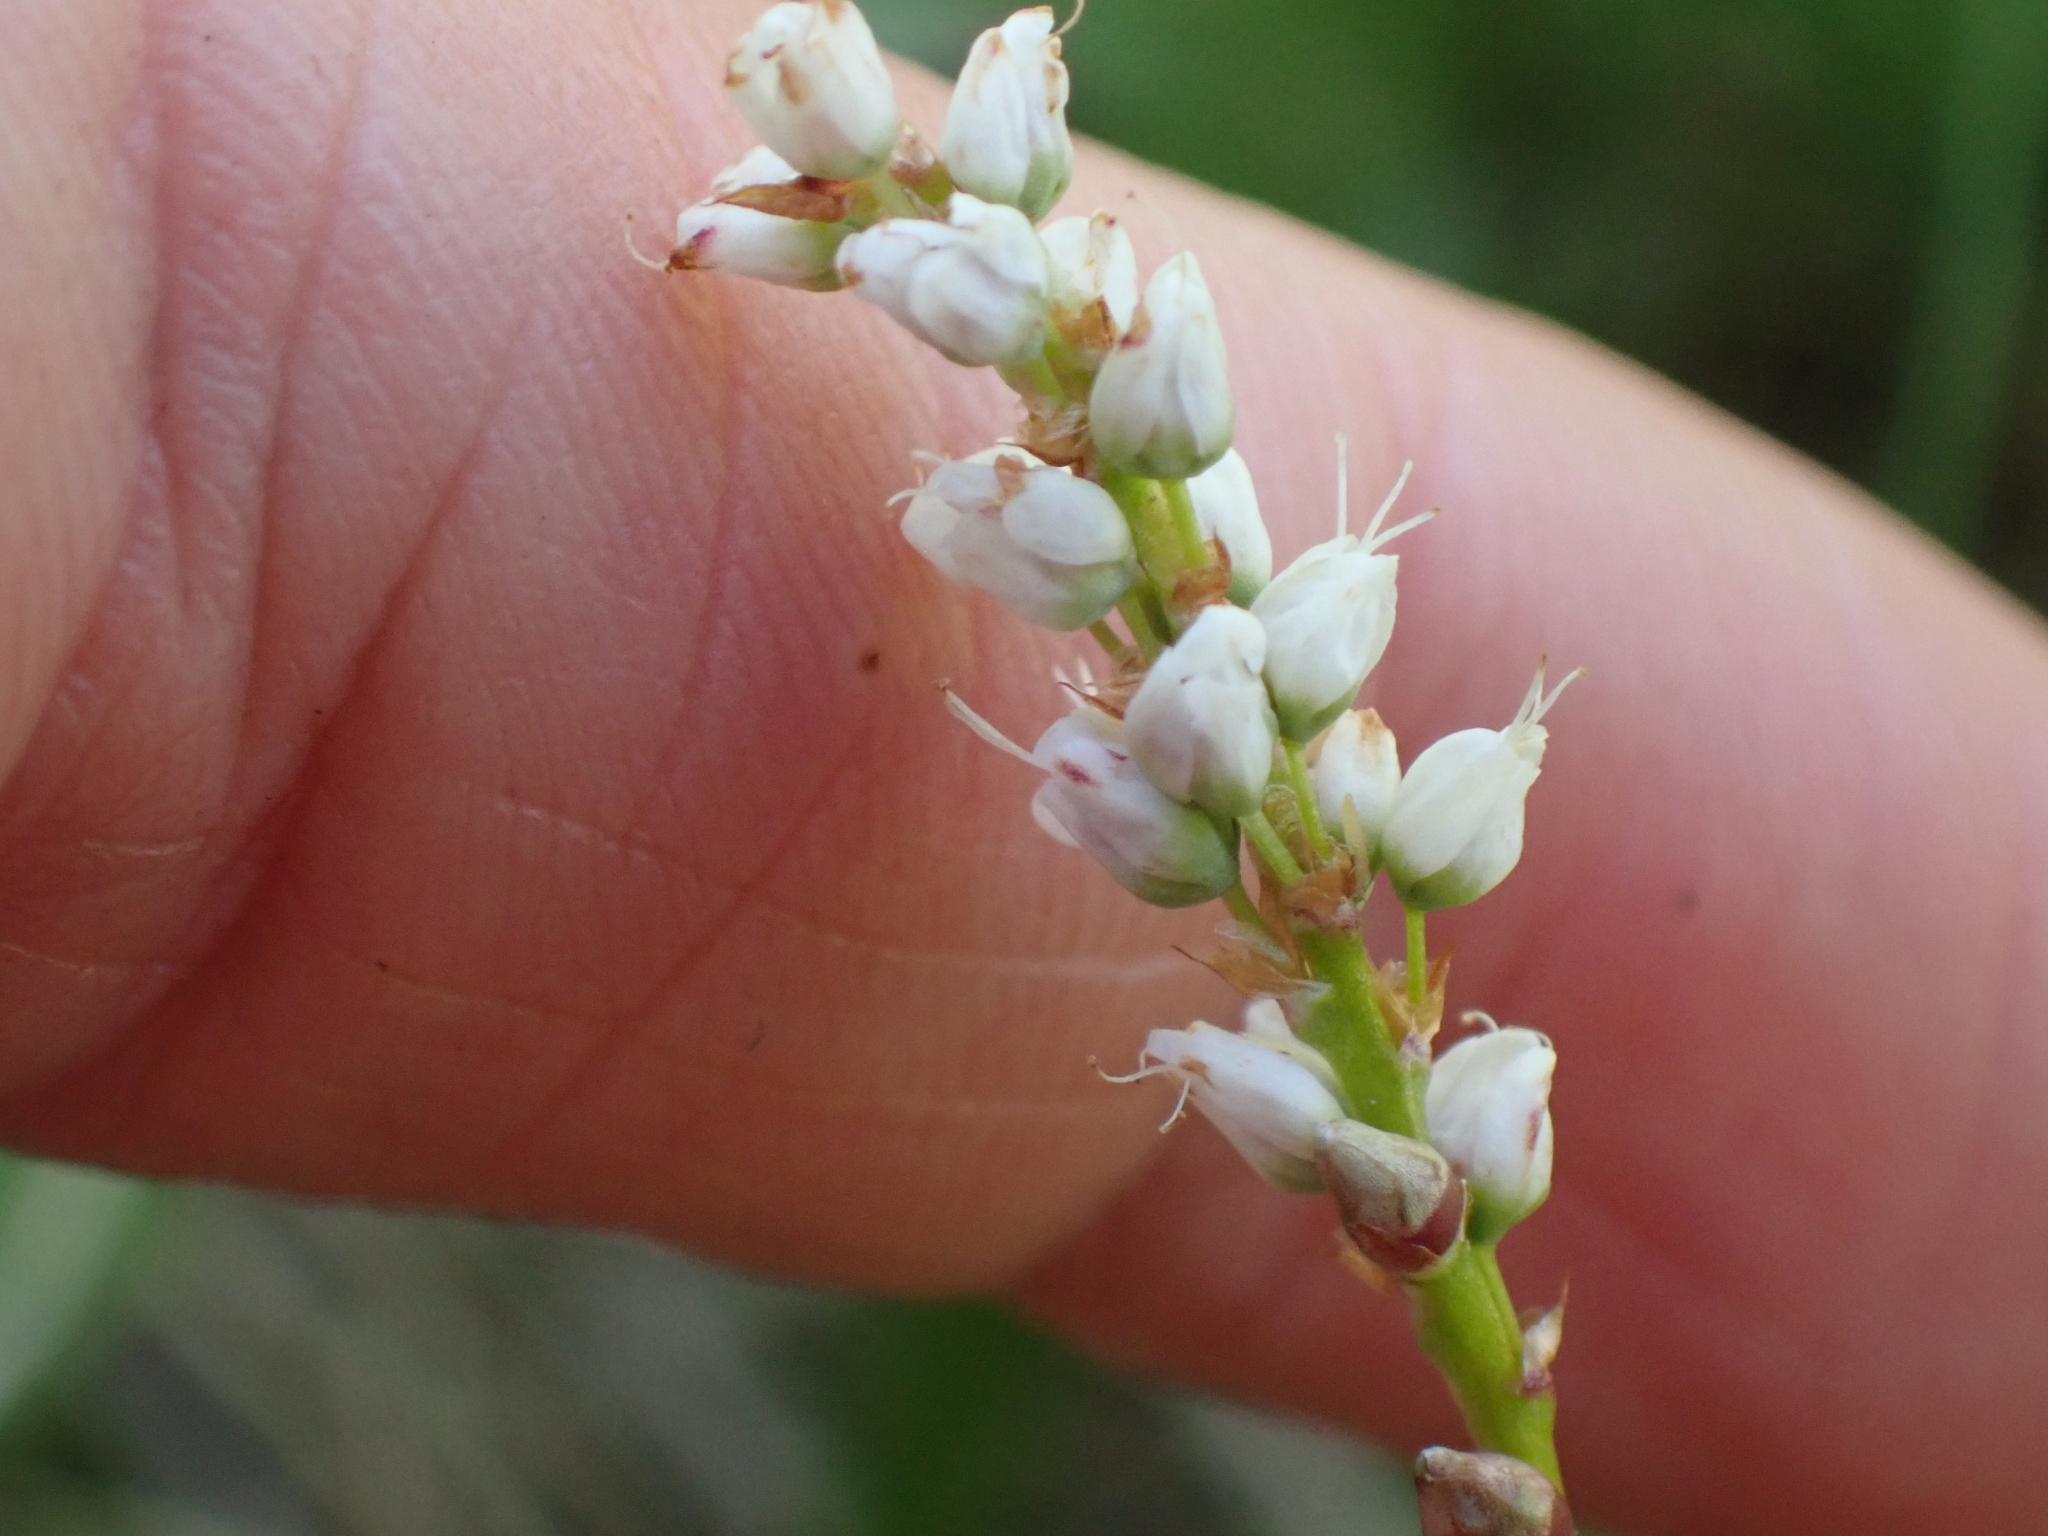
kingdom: Plantae
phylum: Tracheophyta
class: Magnoliopsida
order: Caryophyllales
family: Polygonaceae
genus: Bistorta
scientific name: Bistorta vivipara
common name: Alpine bistort
